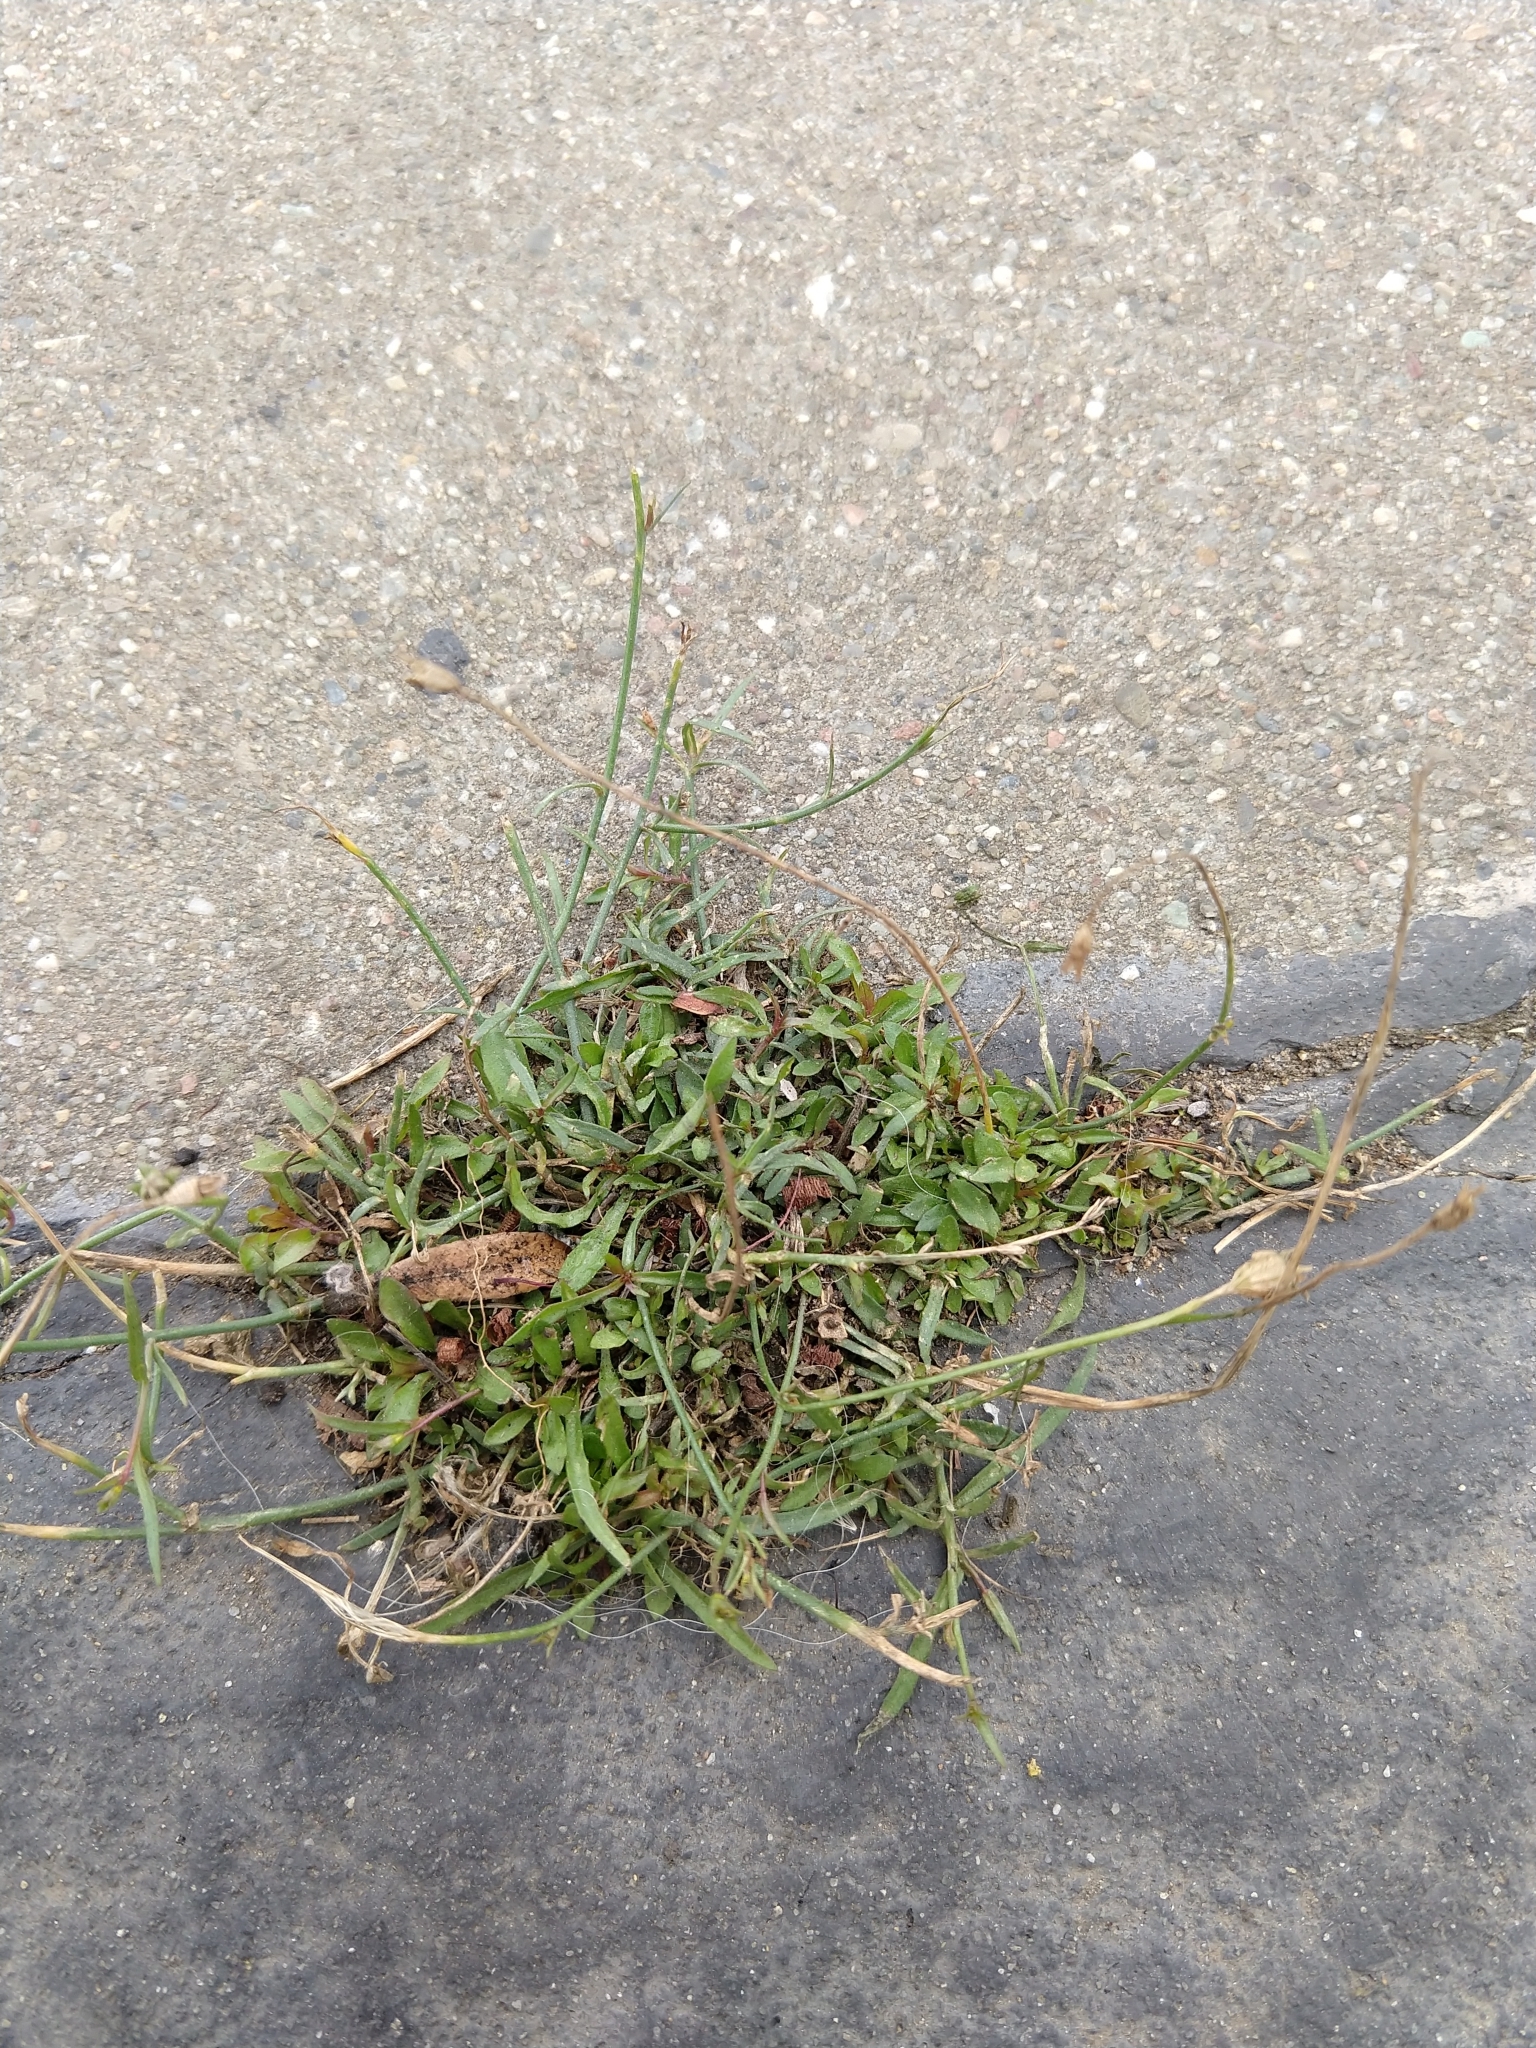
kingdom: Plantae
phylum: Tracheophyta
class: Magnoliopsida
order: Asterales
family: Campanulaceae
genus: Wahlenbergia
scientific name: Wahlenbergia marginata
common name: Southern rockbell
